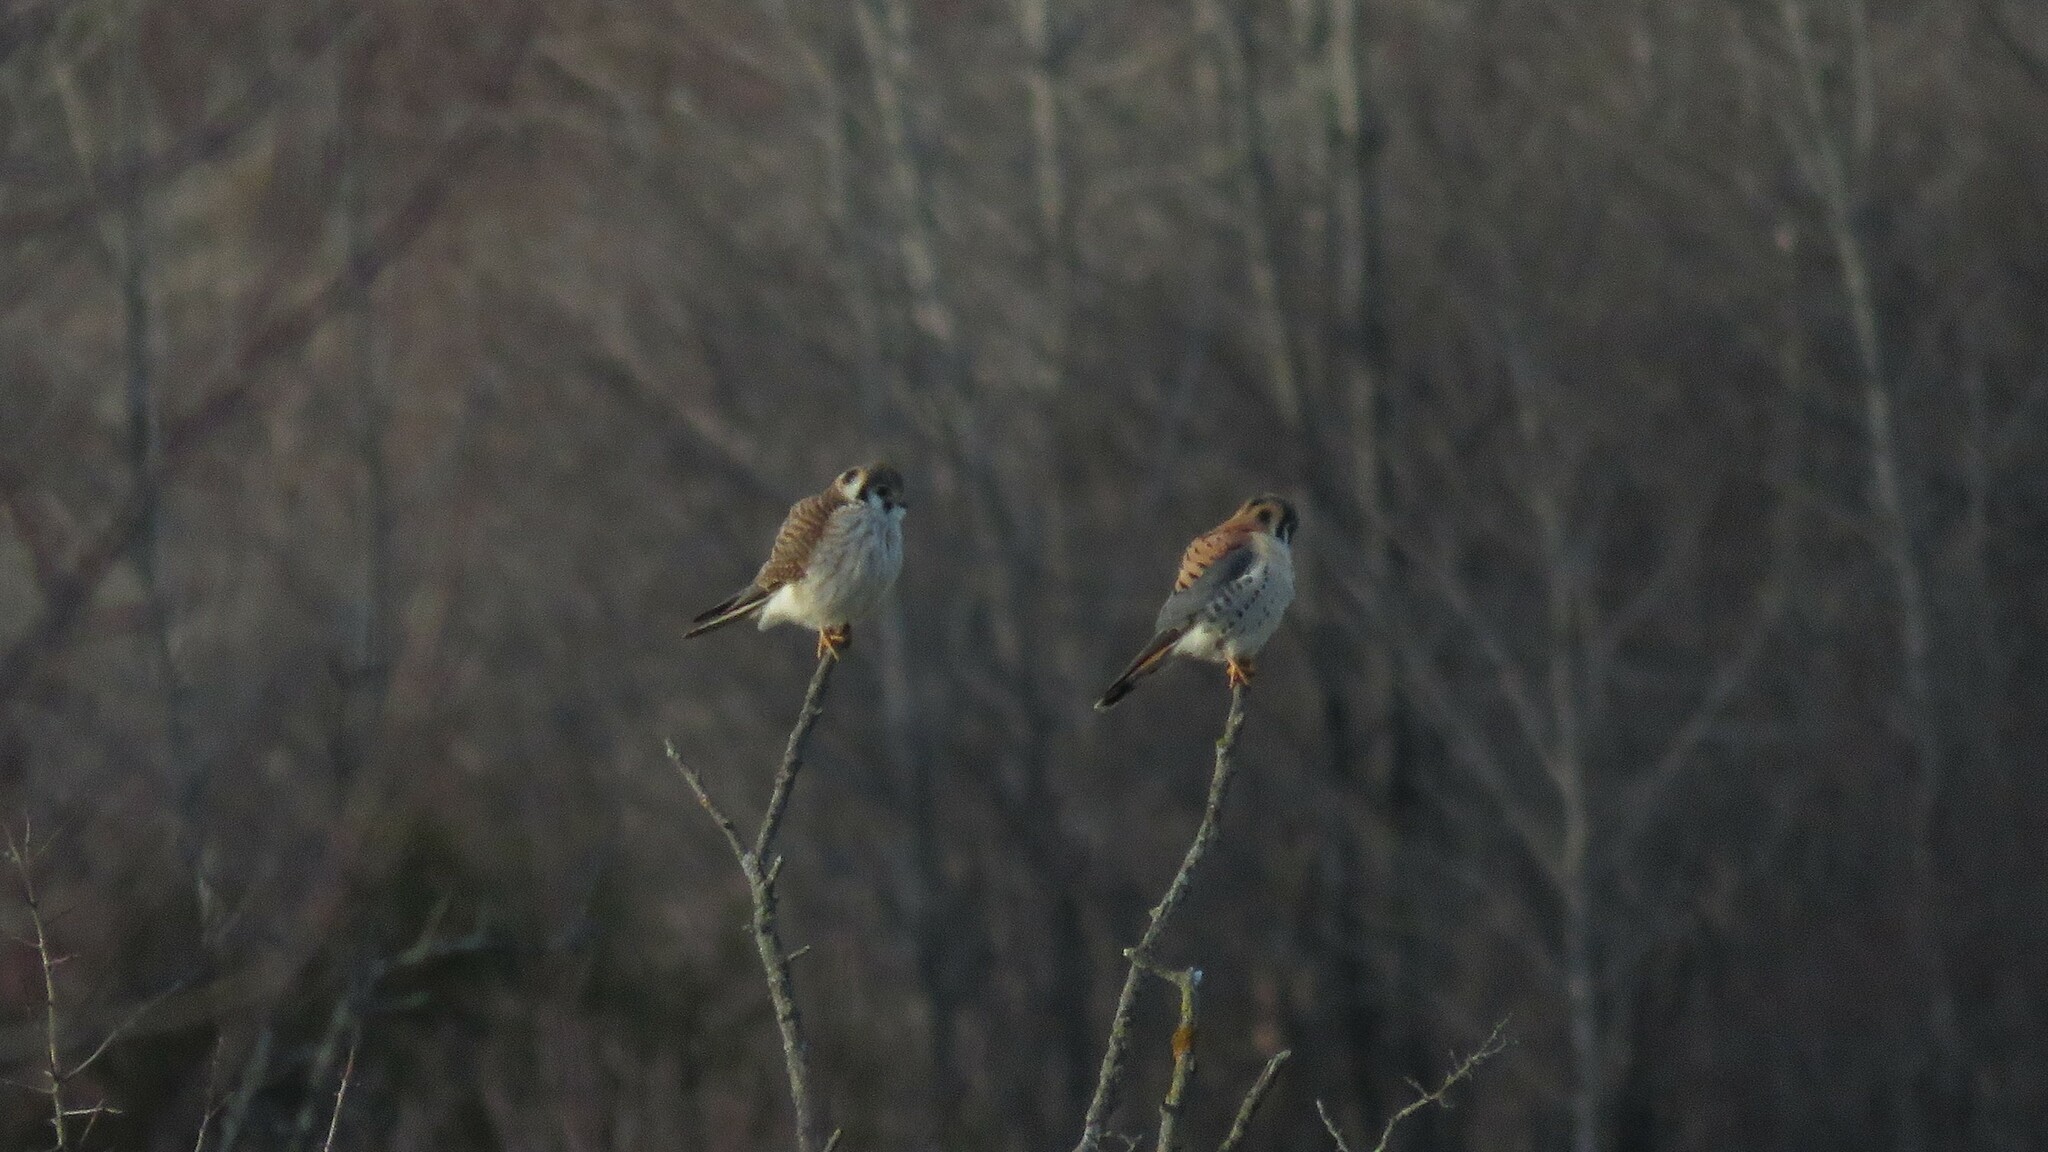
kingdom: Animalia
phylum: Chordata
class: Aves
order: Falconiformes
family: Falconidae
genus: Falco
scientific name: Falco sparverius
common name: American kestrel
